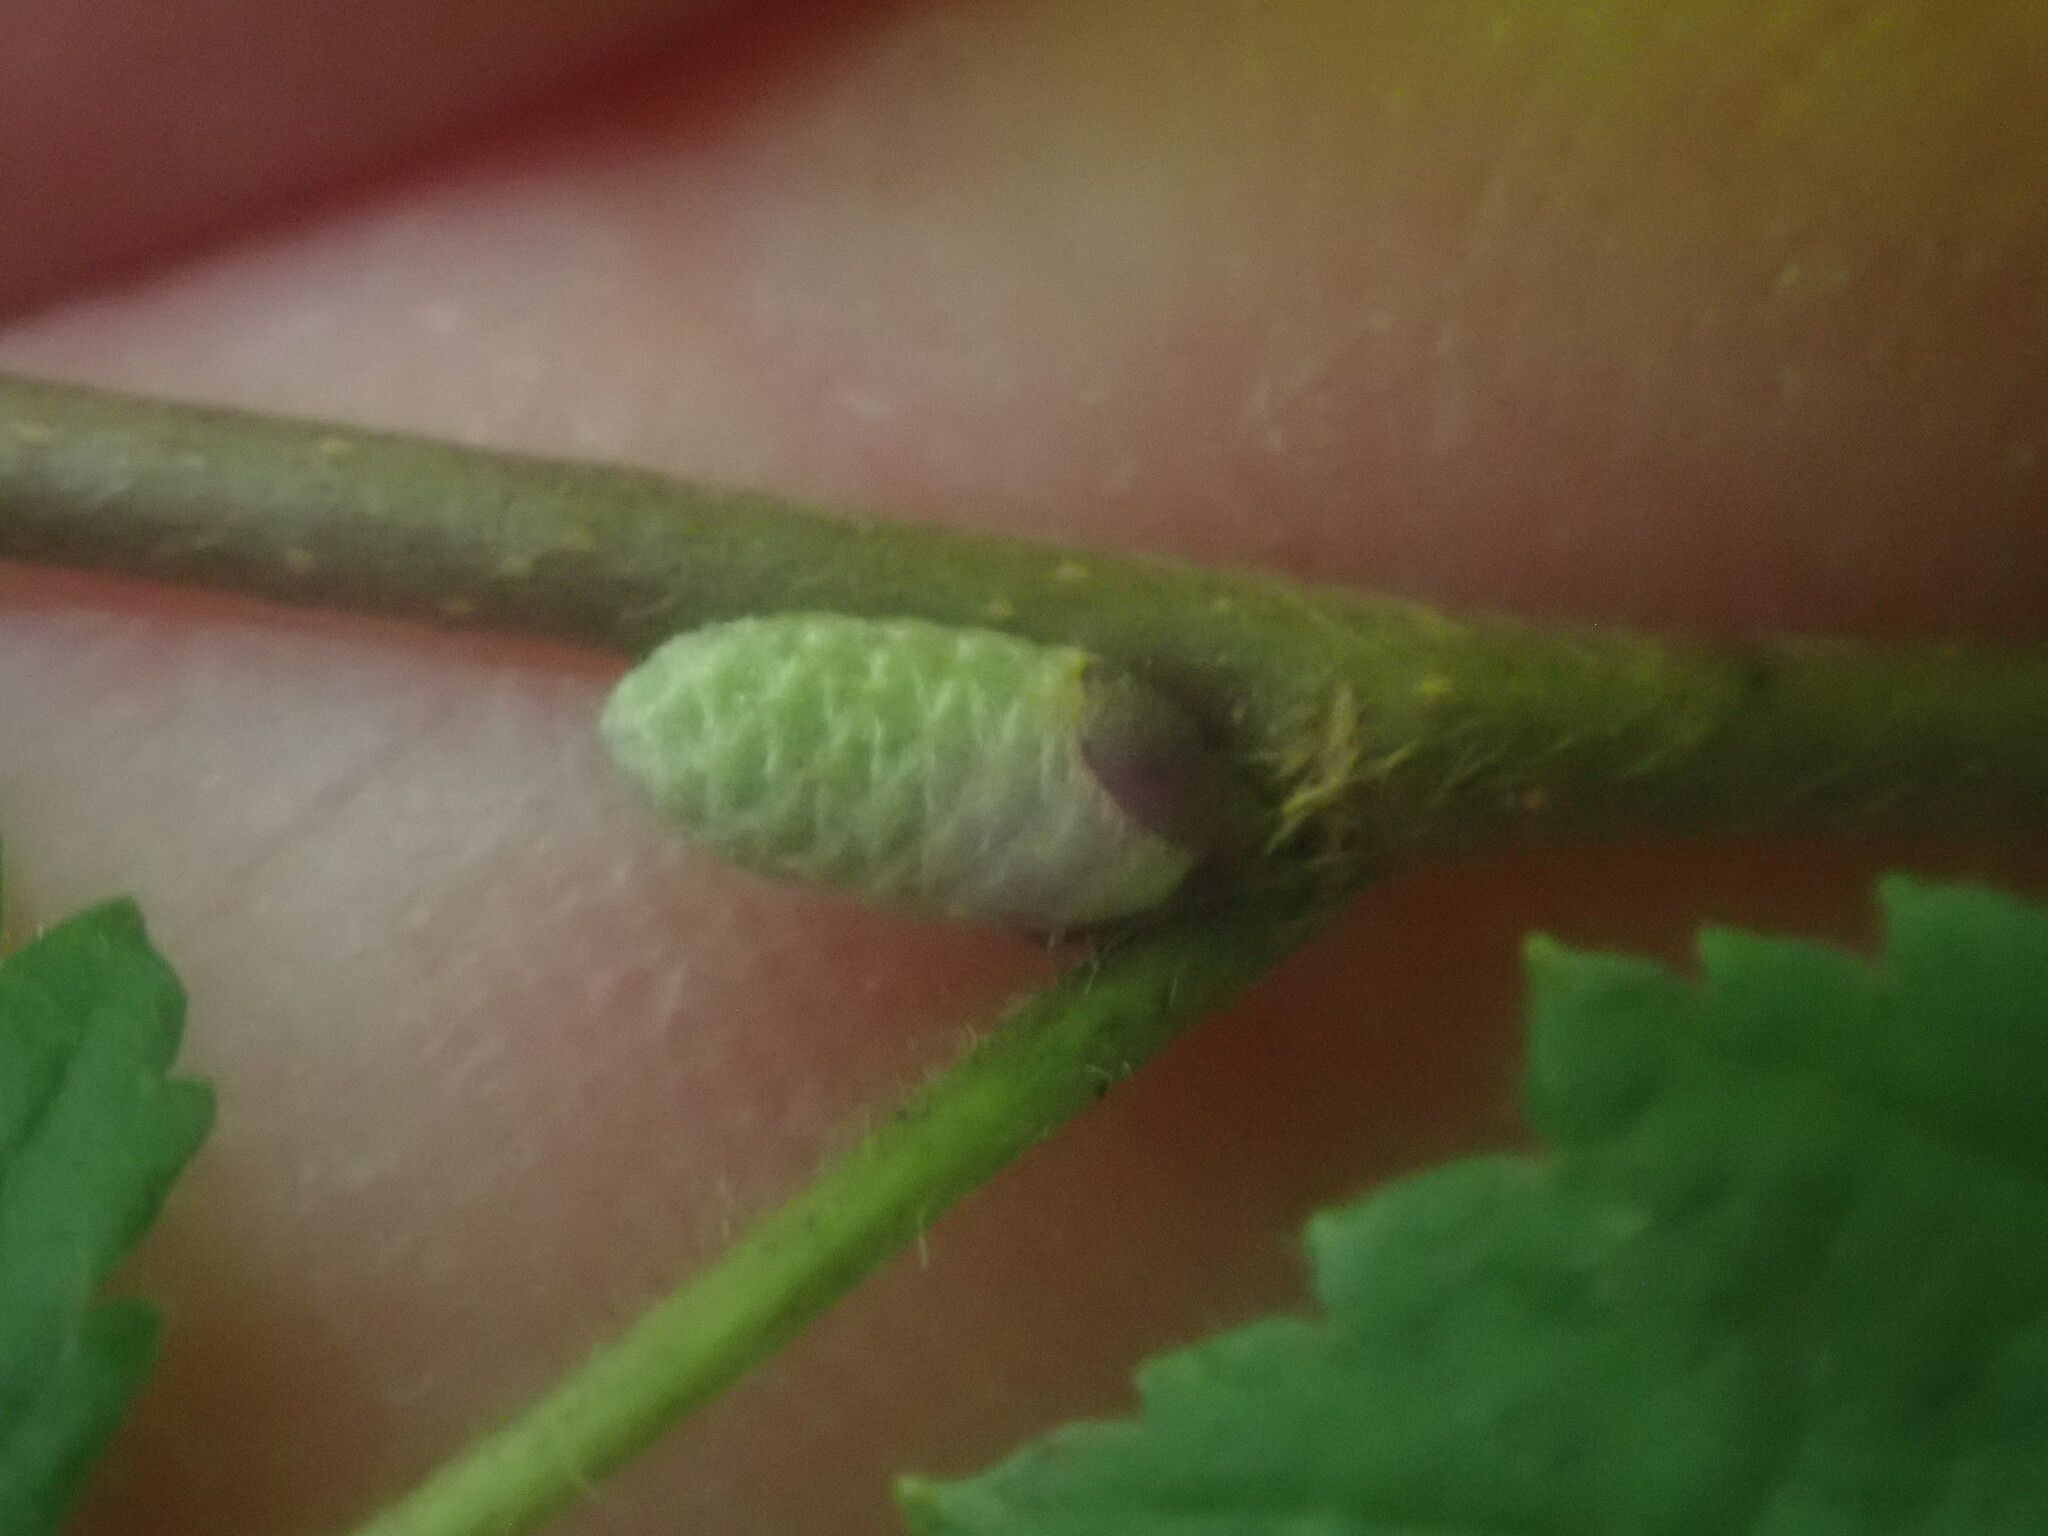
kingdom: Plantae
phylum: Tracheophyta
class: Magnoliopsida
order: Fagales
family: Betulaceae
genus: Corylus
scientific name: Corylus americana
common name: American hazel
